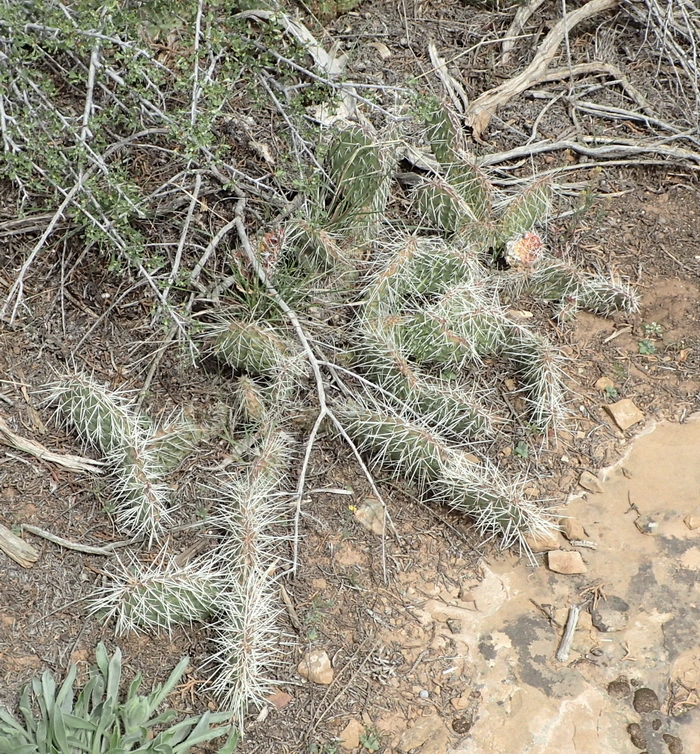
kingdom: Plantae
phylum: Tracheophyta
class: Magnoliopsida
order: Caryophyllales
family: Cactaceae
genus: Opuntia
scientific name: Opuntia polyacantha
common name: Plains prickly-pear
